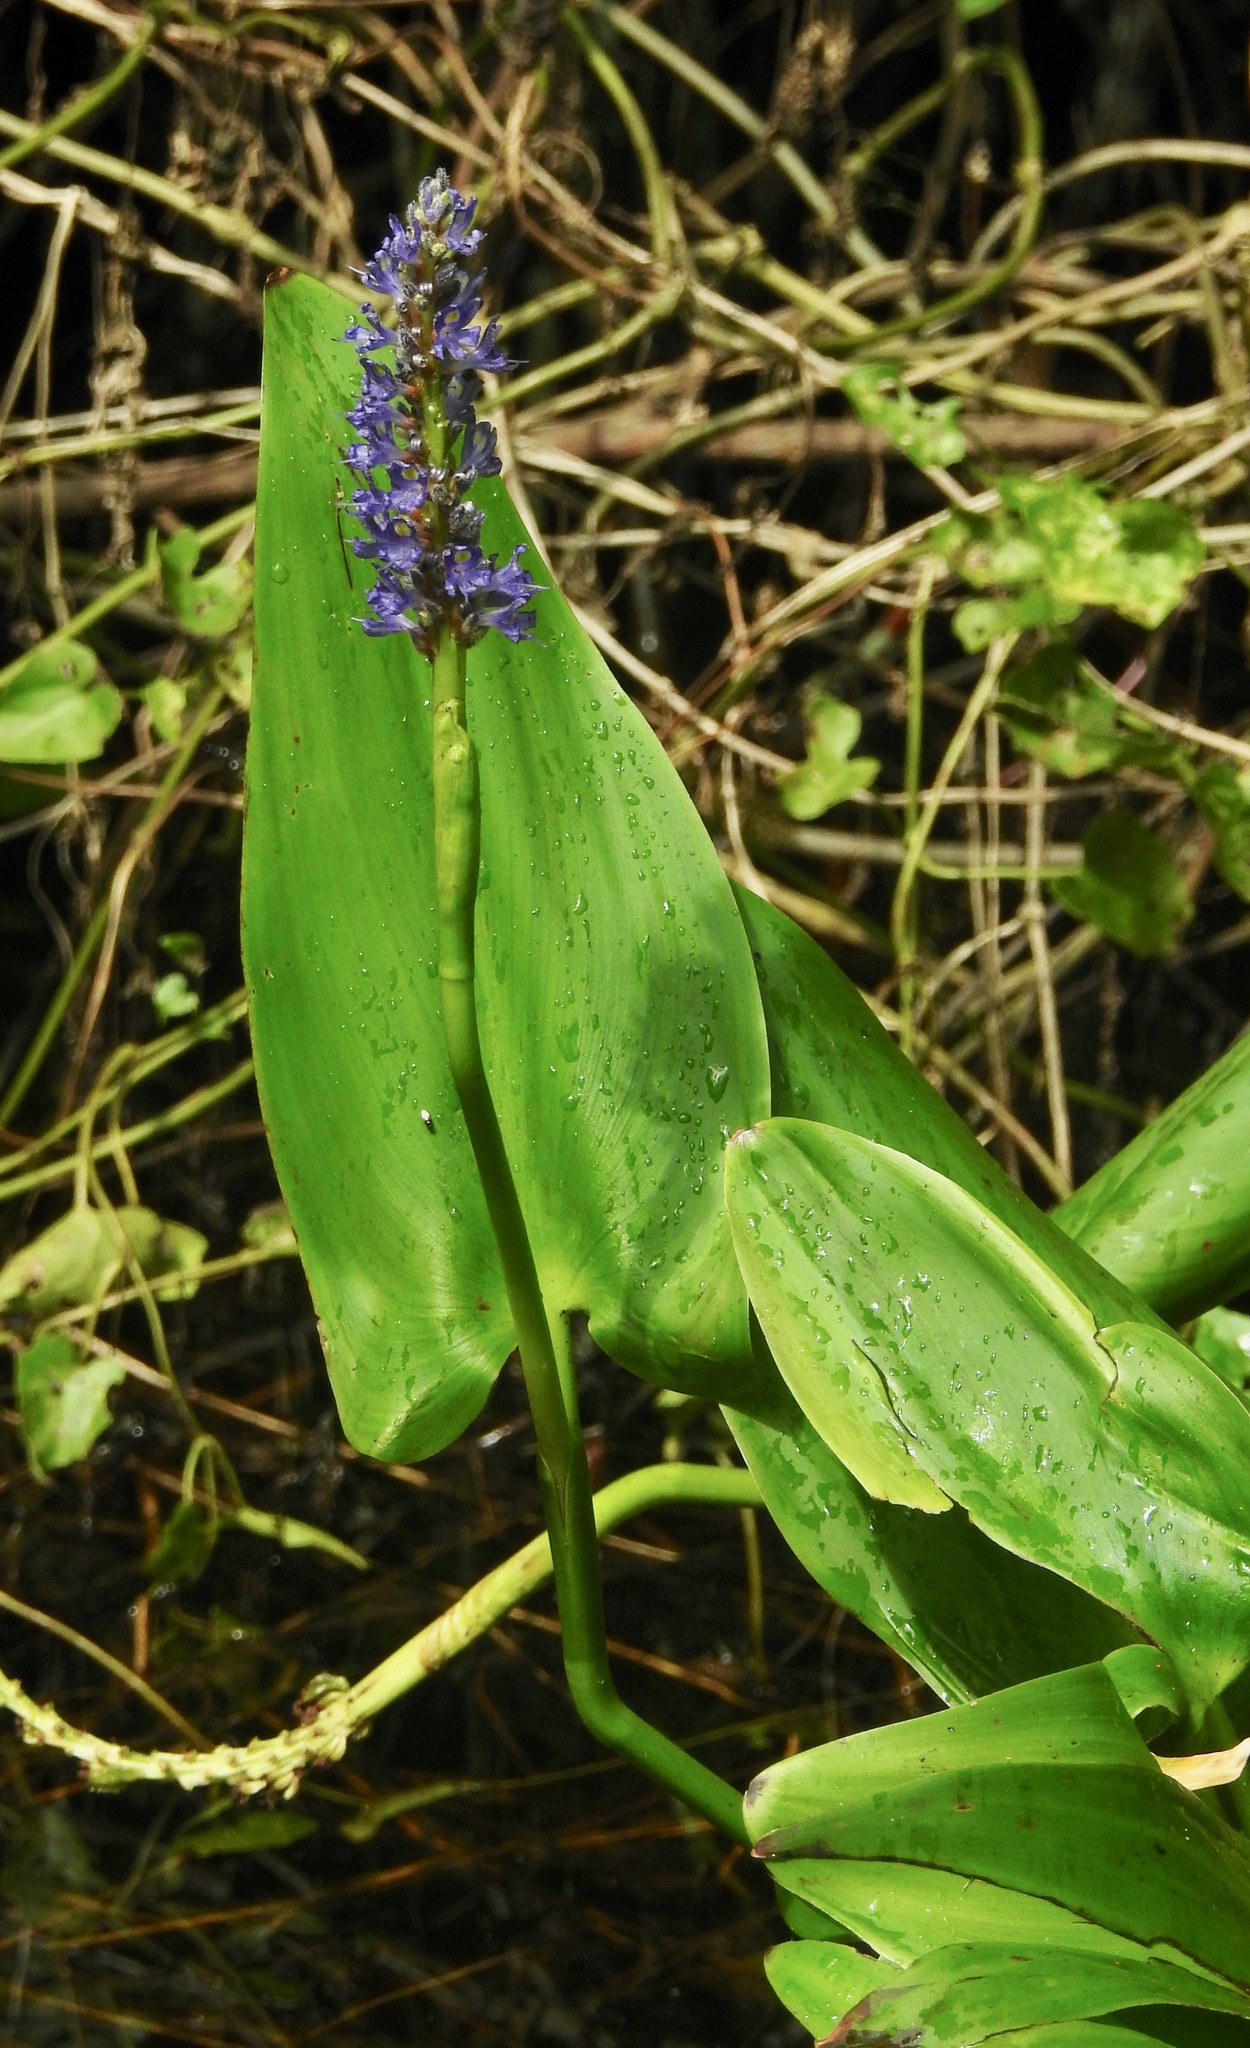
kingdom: Plantae
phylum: Tracheophyta
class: Liliopsida
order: Commelinales
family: Pontederiaceae
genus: Pontederia
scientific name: Pontederia cordata
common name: Pickerelweed
